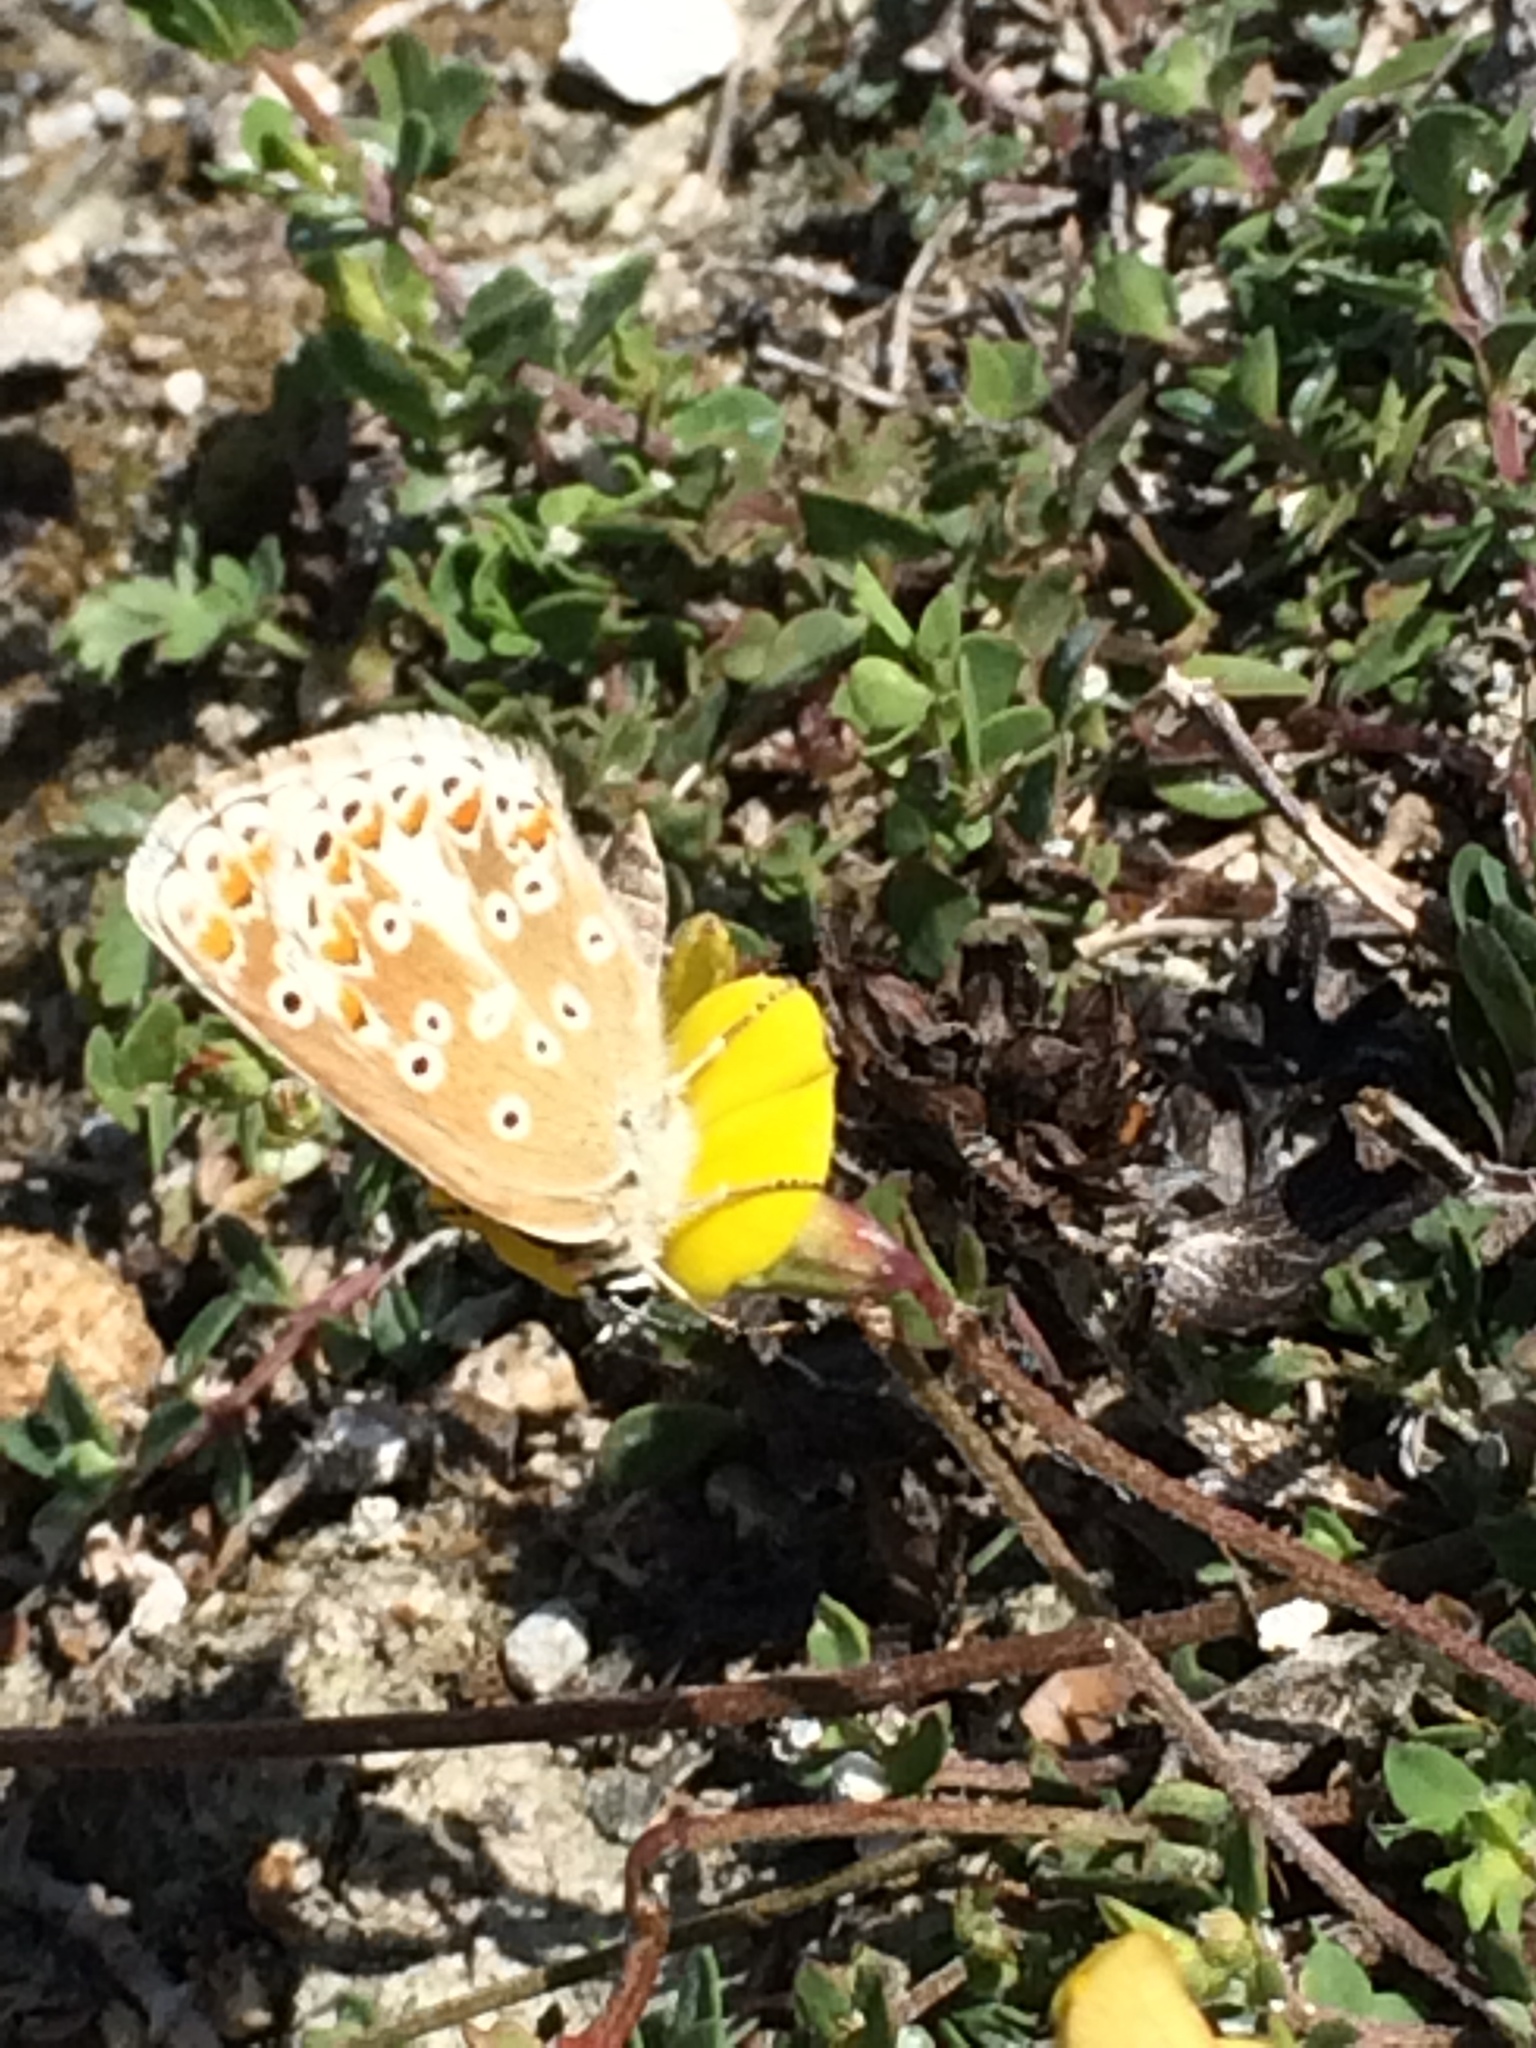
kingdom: Animalia
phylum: Arthropoda
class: Insecta
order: Lepidoptera
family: Lycaenidae
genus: Aricia
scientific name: Aricia agestis
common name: Brown argus
